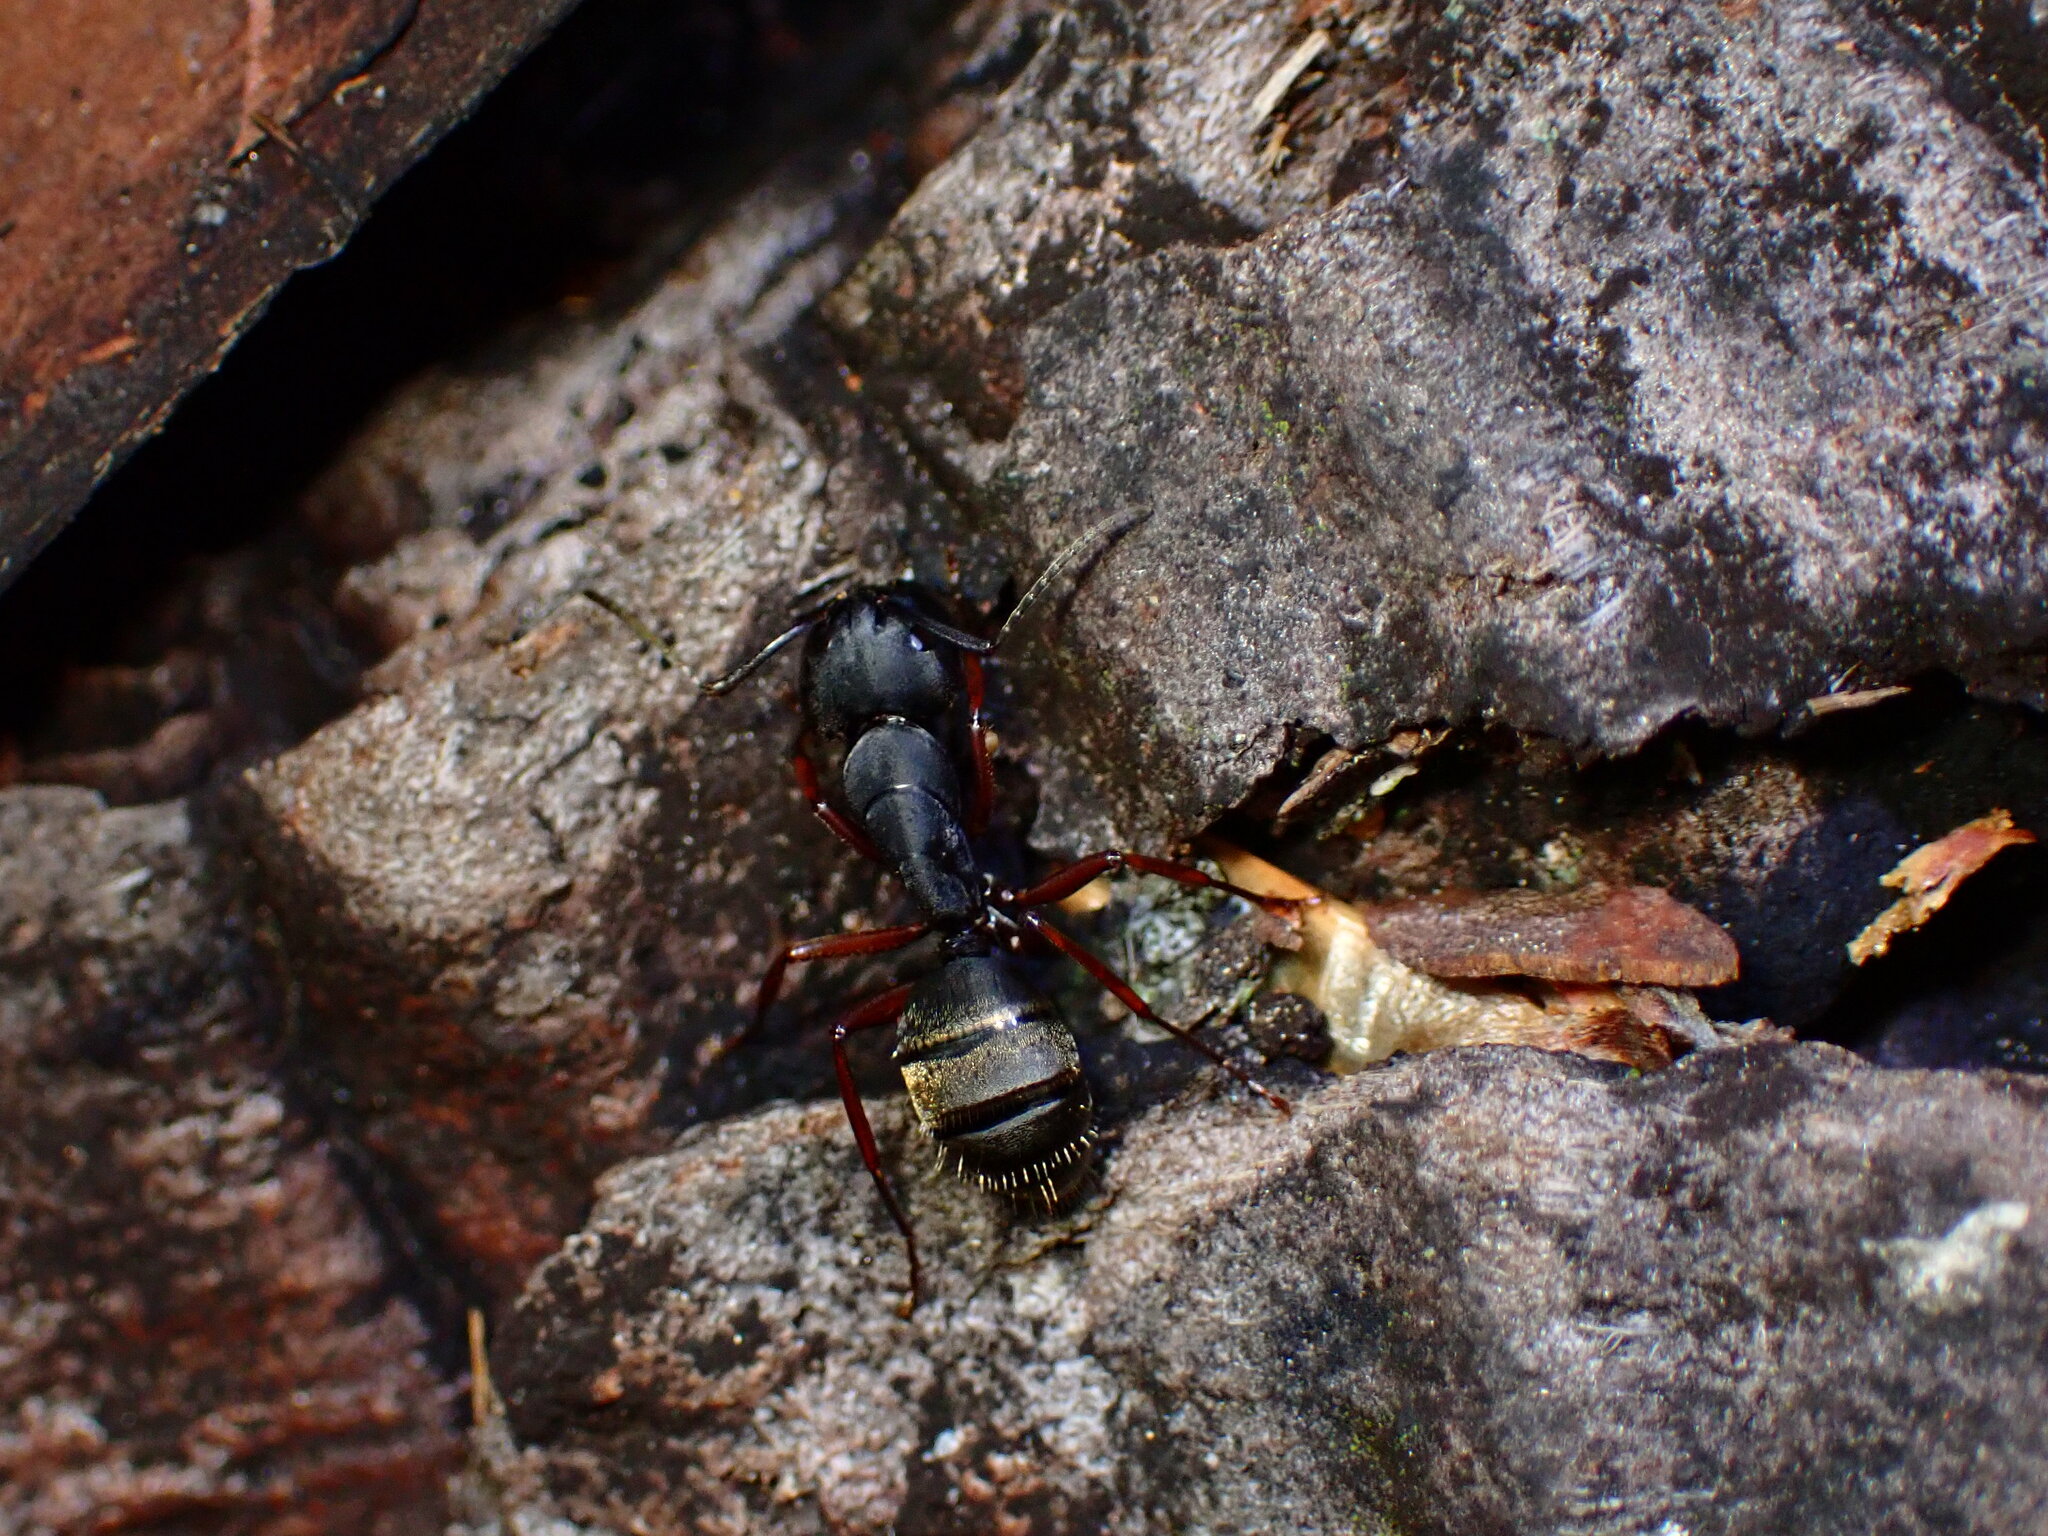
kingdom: Animalia
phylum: Arthropoda
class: Insecta
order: Hymenoptera
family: Formicidae
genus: Camponotus
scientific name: Camponotus modoc
